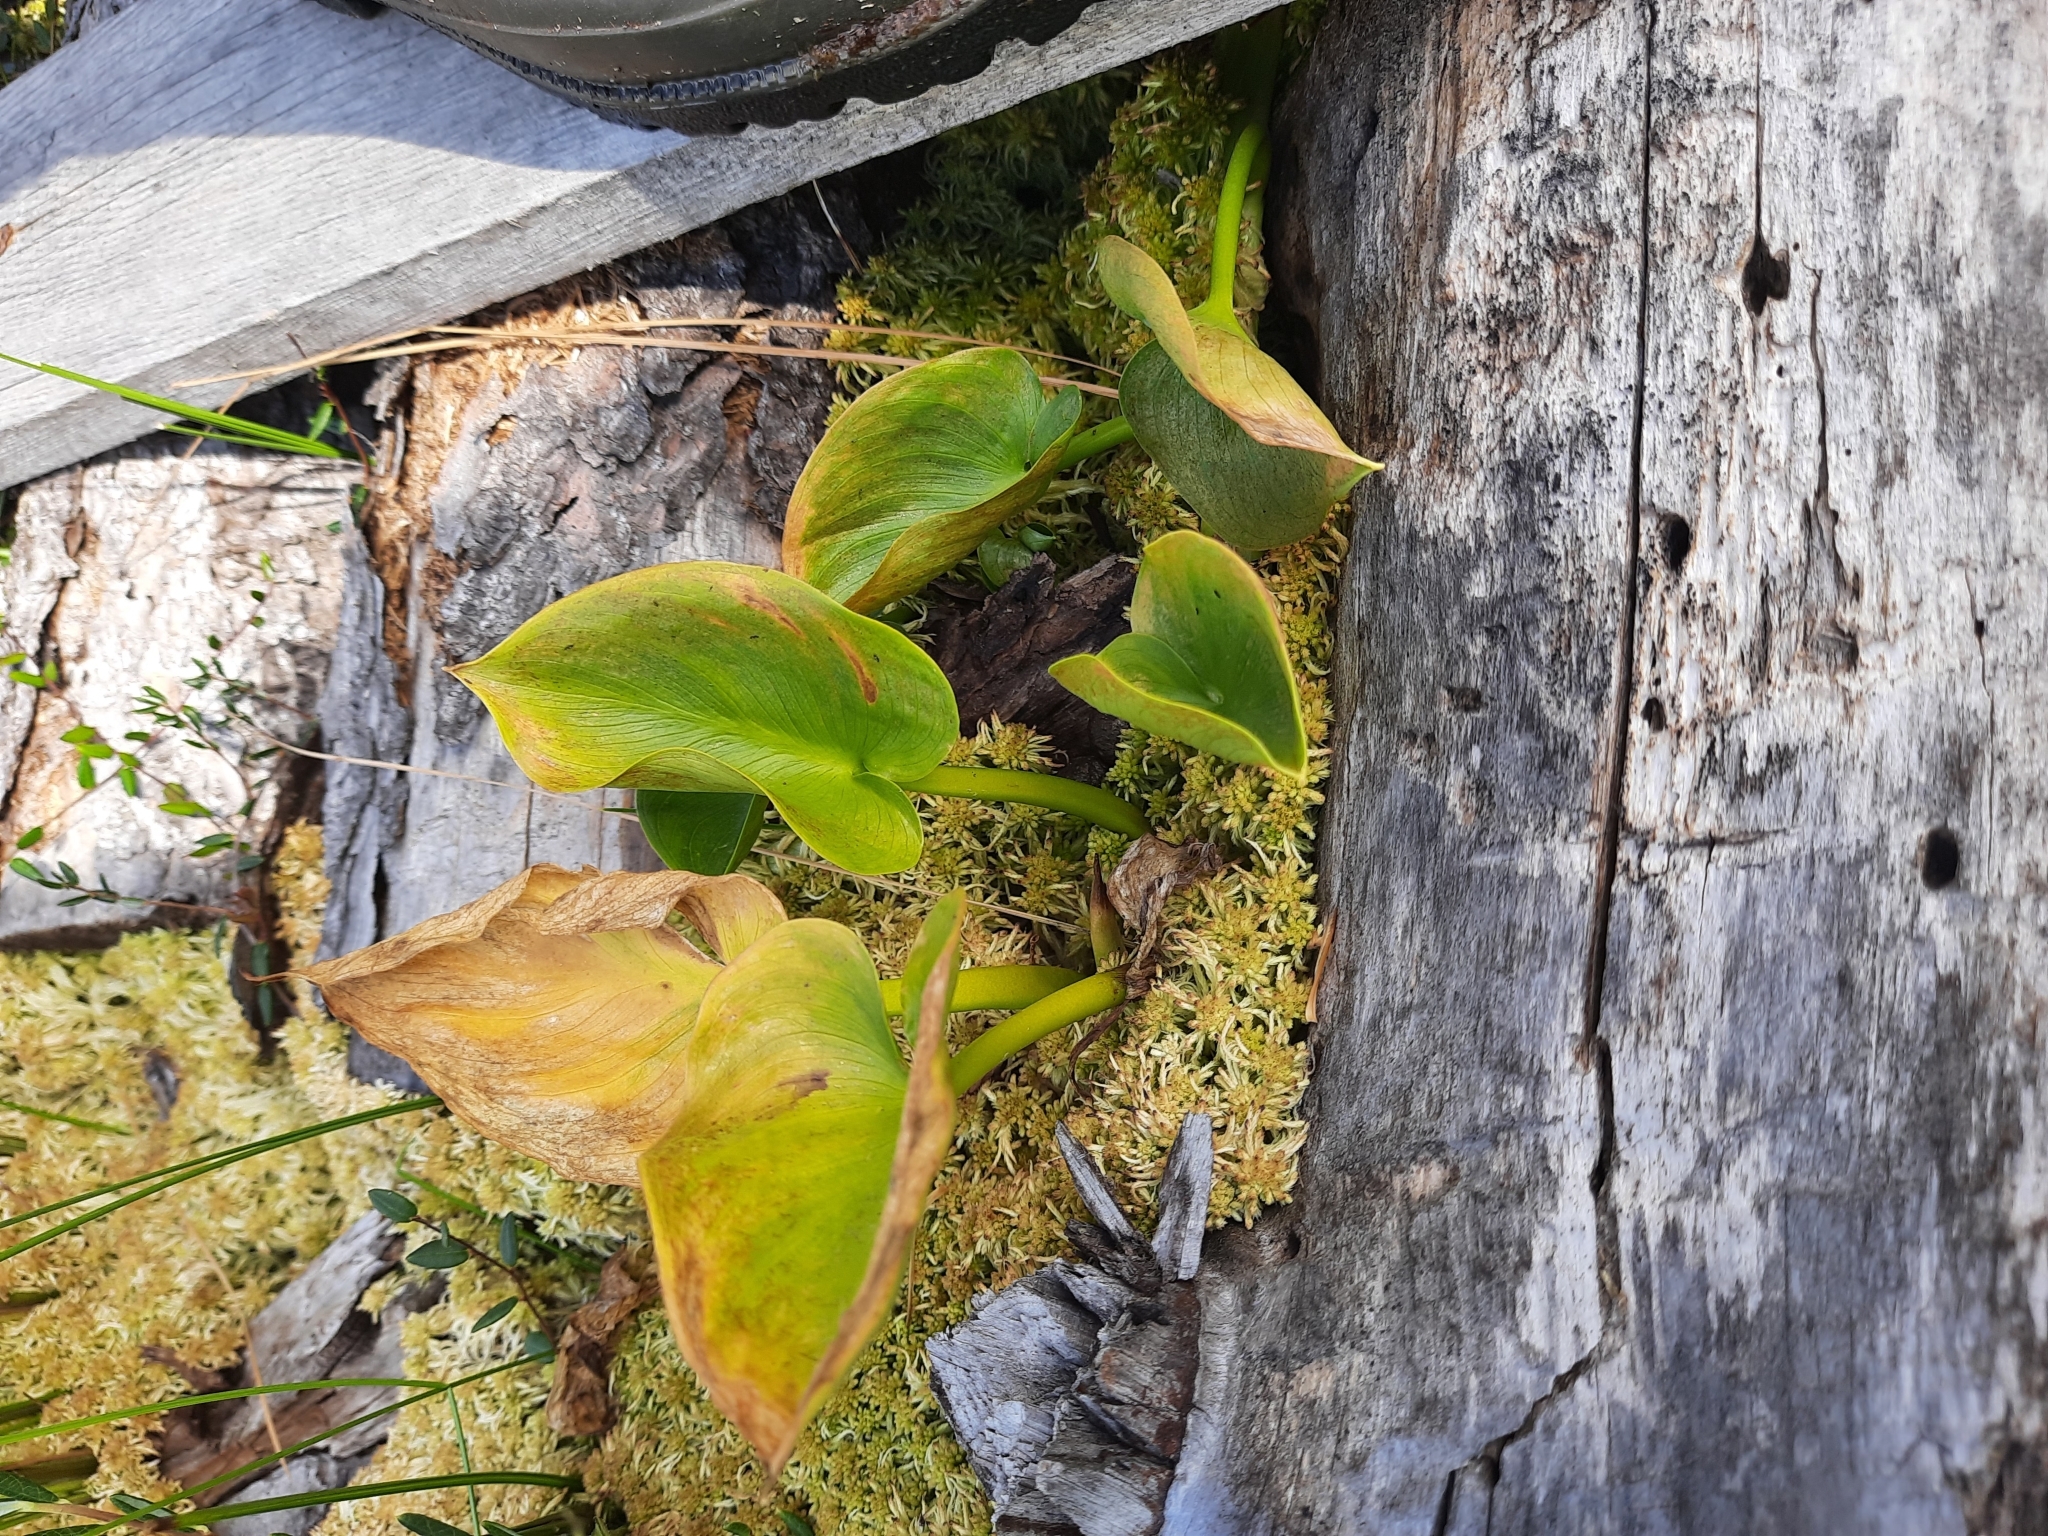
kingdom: Plantae
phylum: Tracheophyta
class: Liliopsida
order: Alismatales
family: Araceae
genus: Calla
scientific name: Calla palustris
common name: Bog arum
